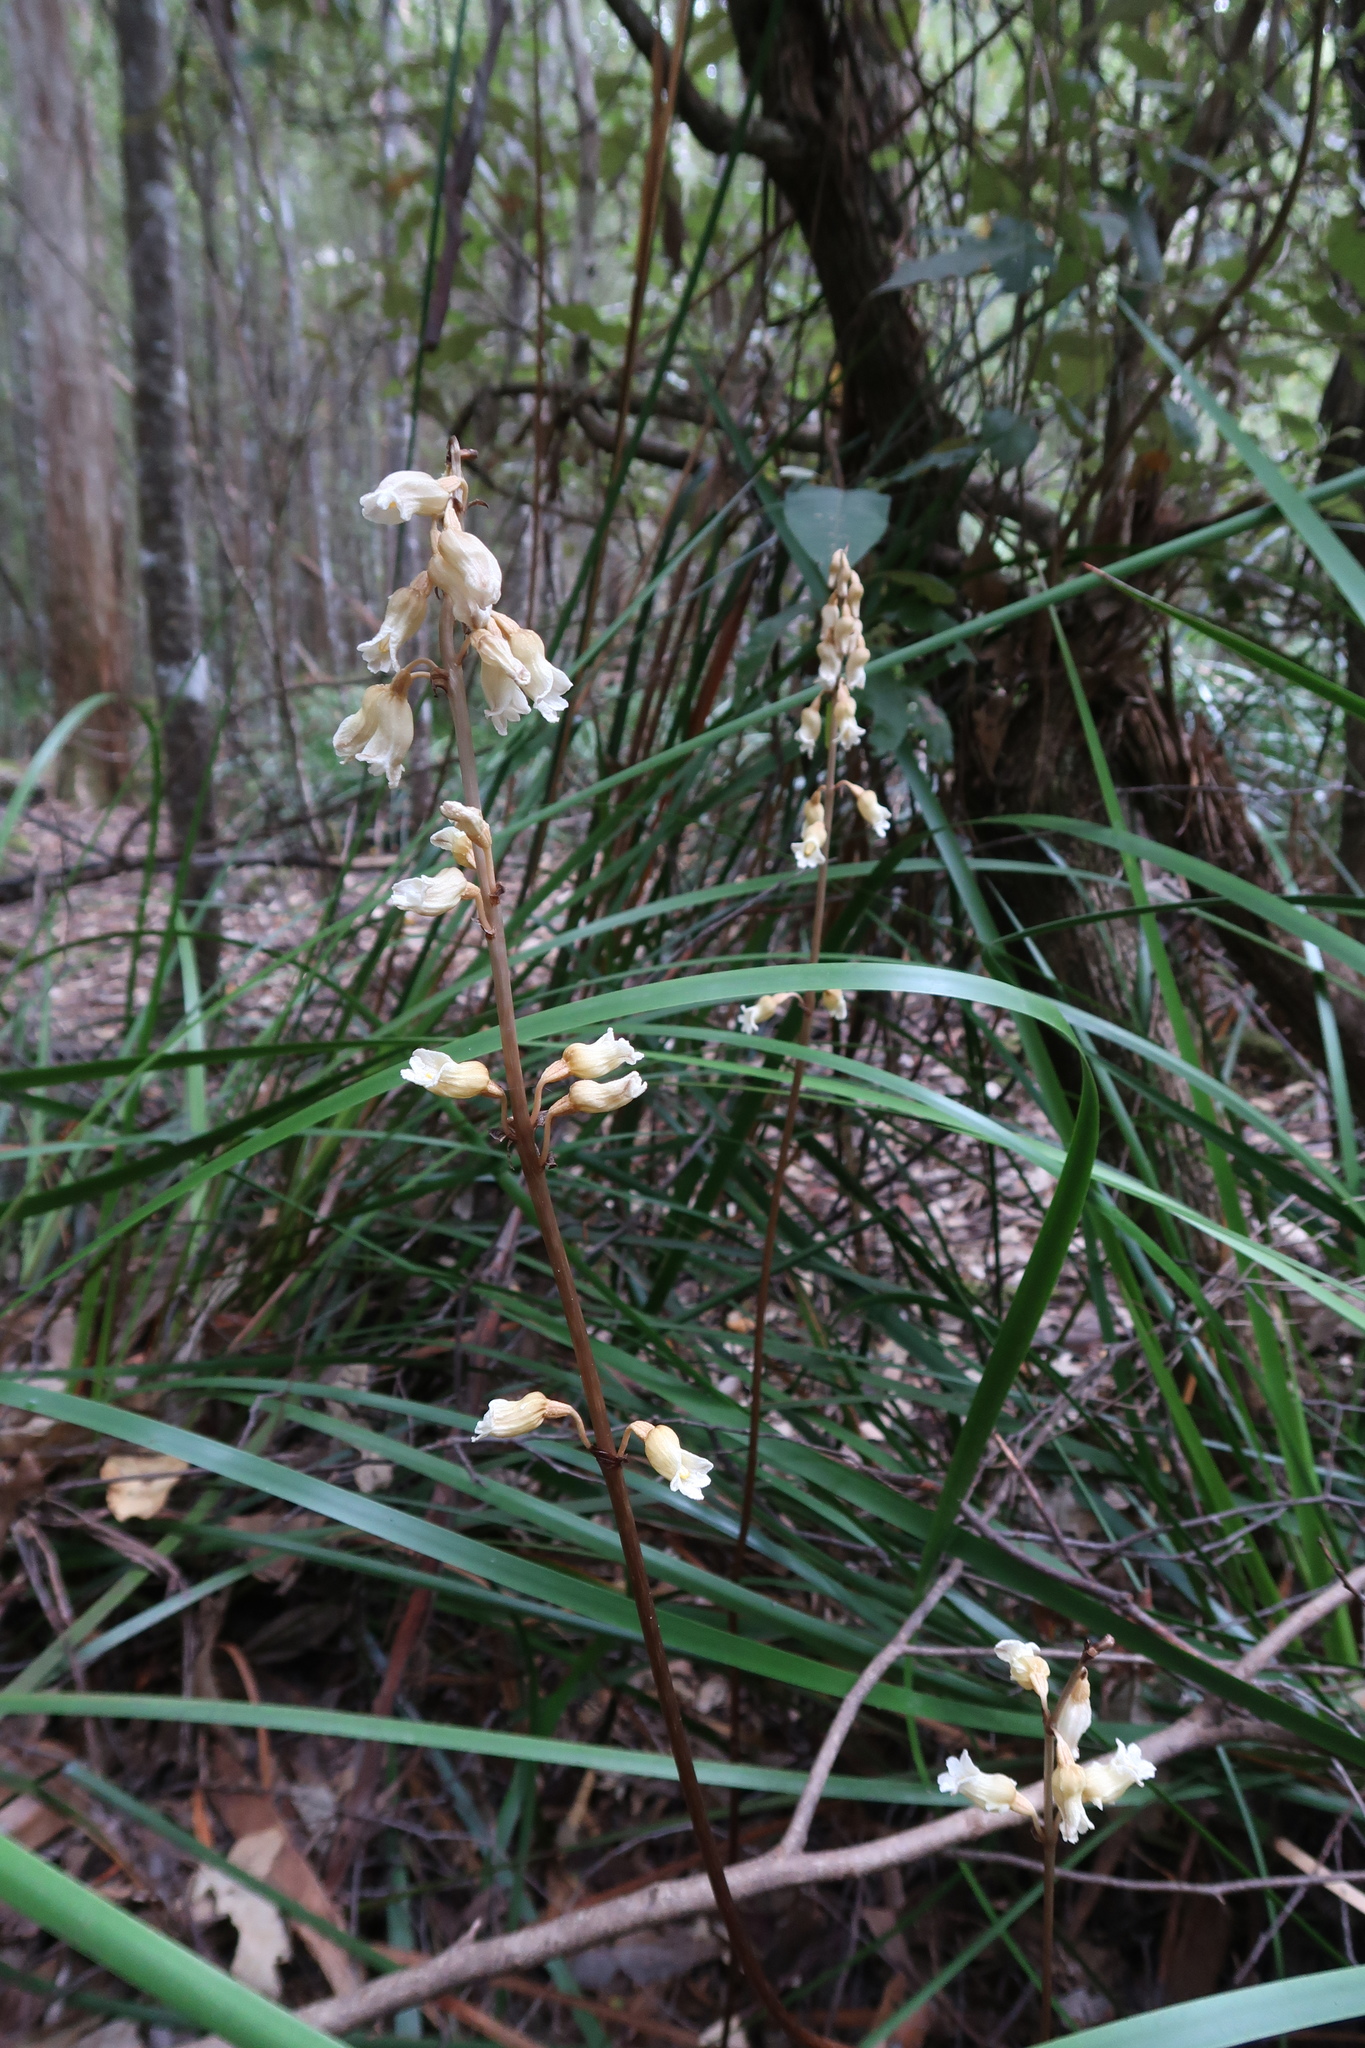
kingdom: Plantae
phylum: Tracheophyta
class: Liliopsida
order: Asparagales
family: Orchidaceae
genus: Gastrodia
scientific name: Gastrodia procera
